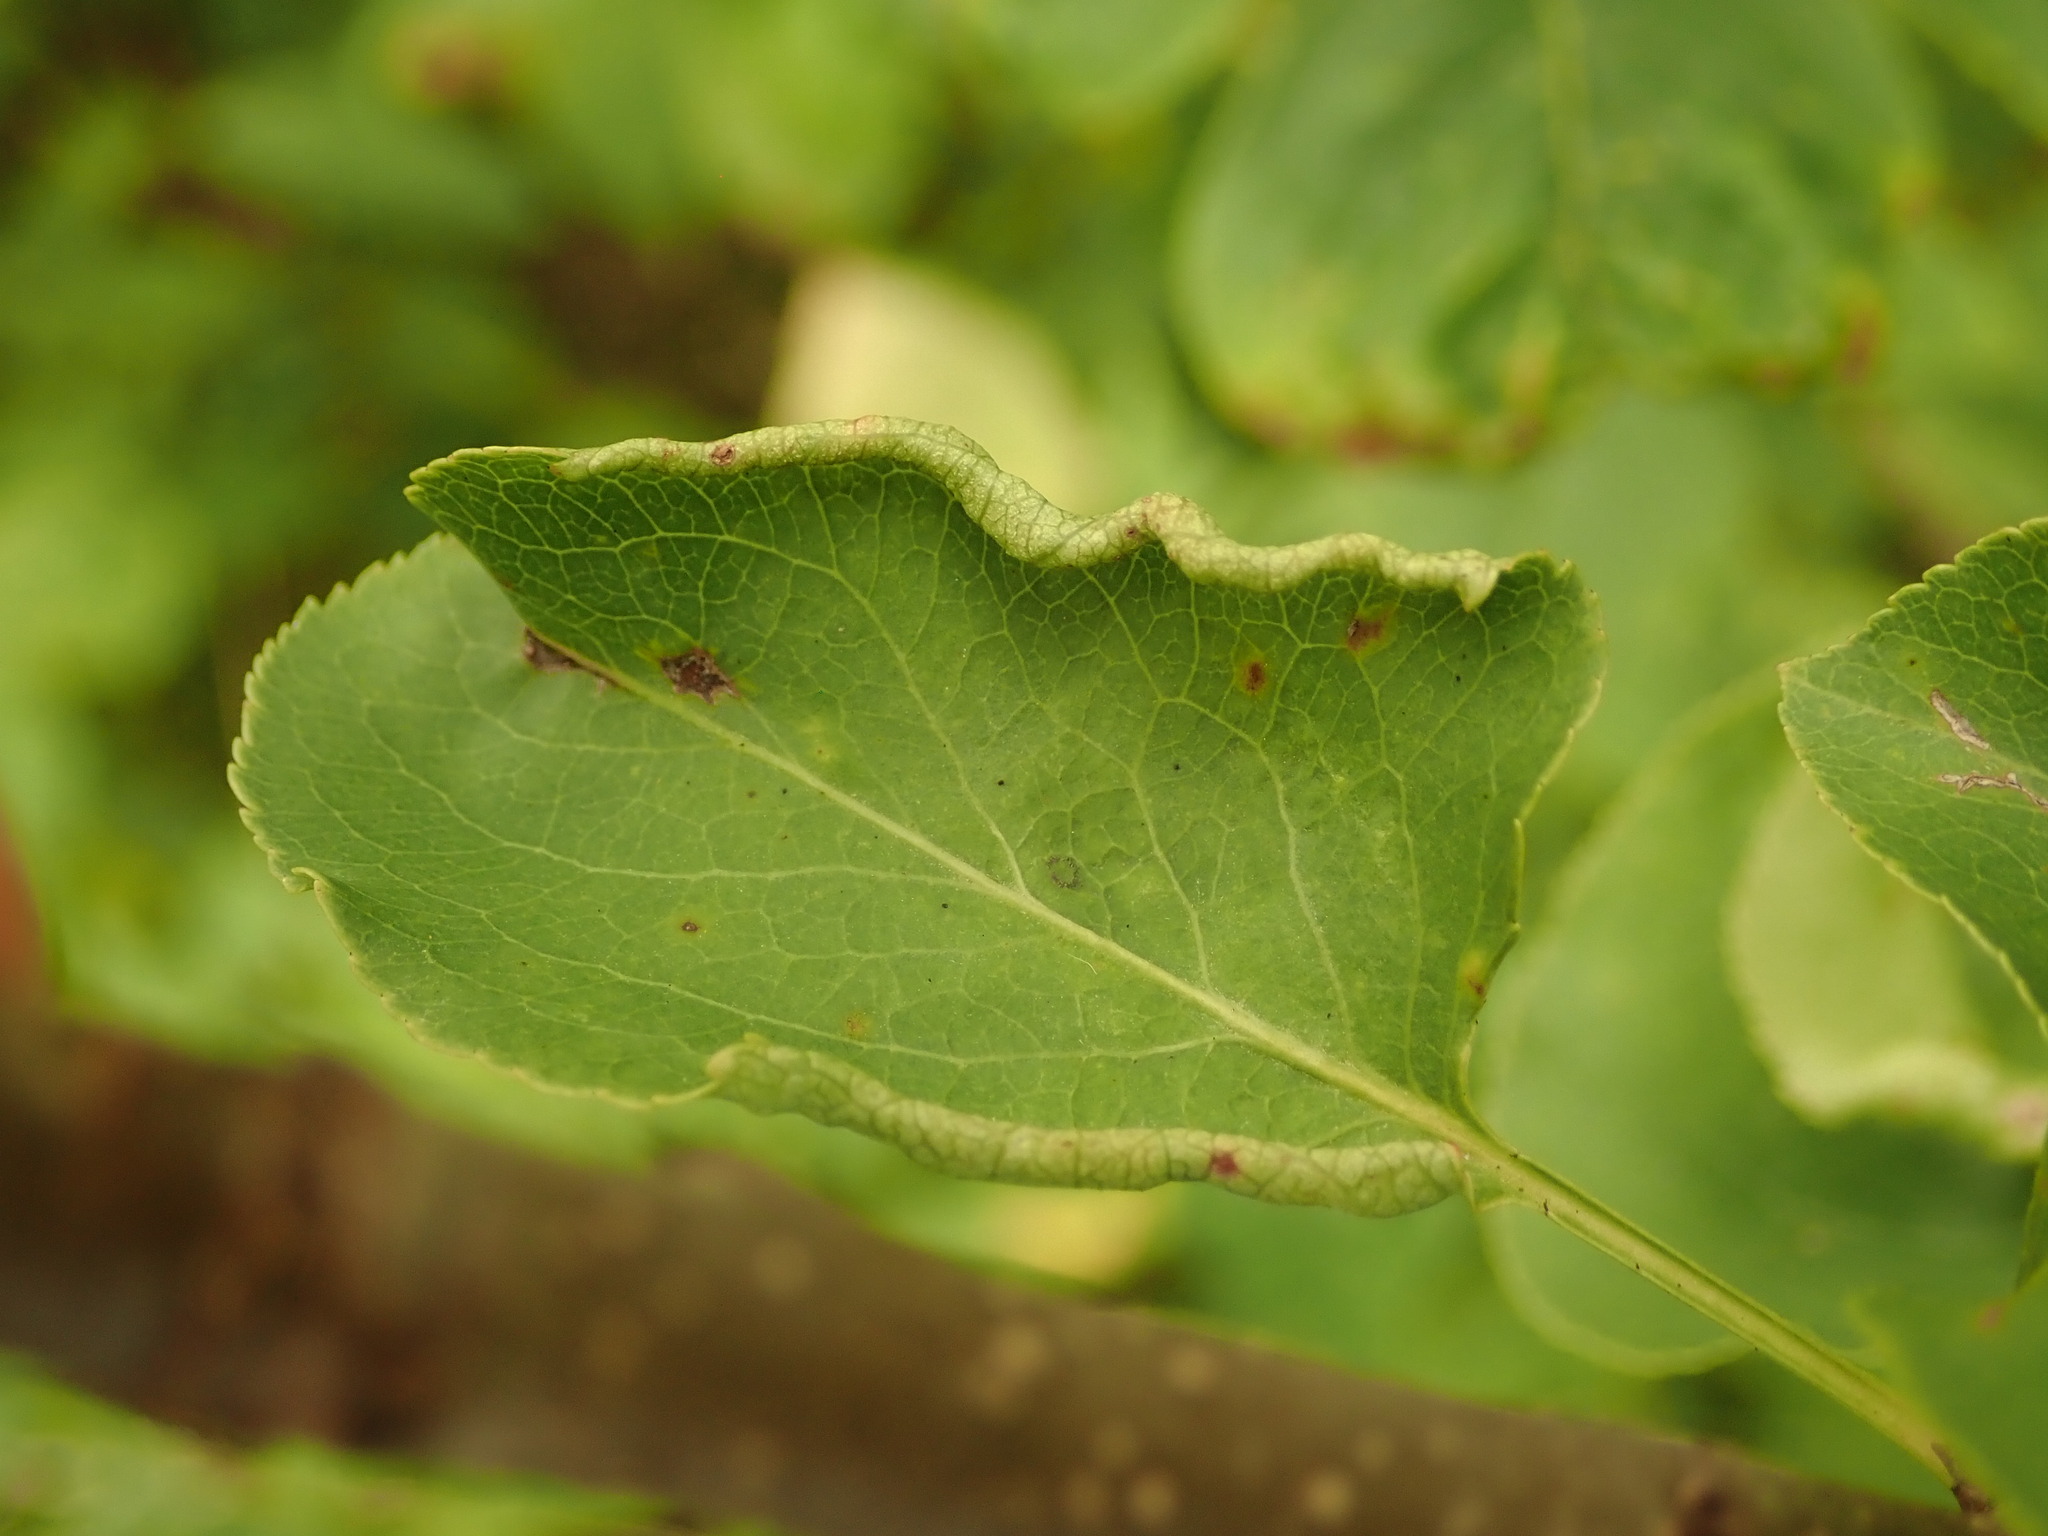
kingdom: Animalia
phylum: Arthropoda
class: Arachnida
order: Trombidiformes
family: Eriophyidae
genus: Eriophyes
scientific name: Eriophyes marginemtorquens
